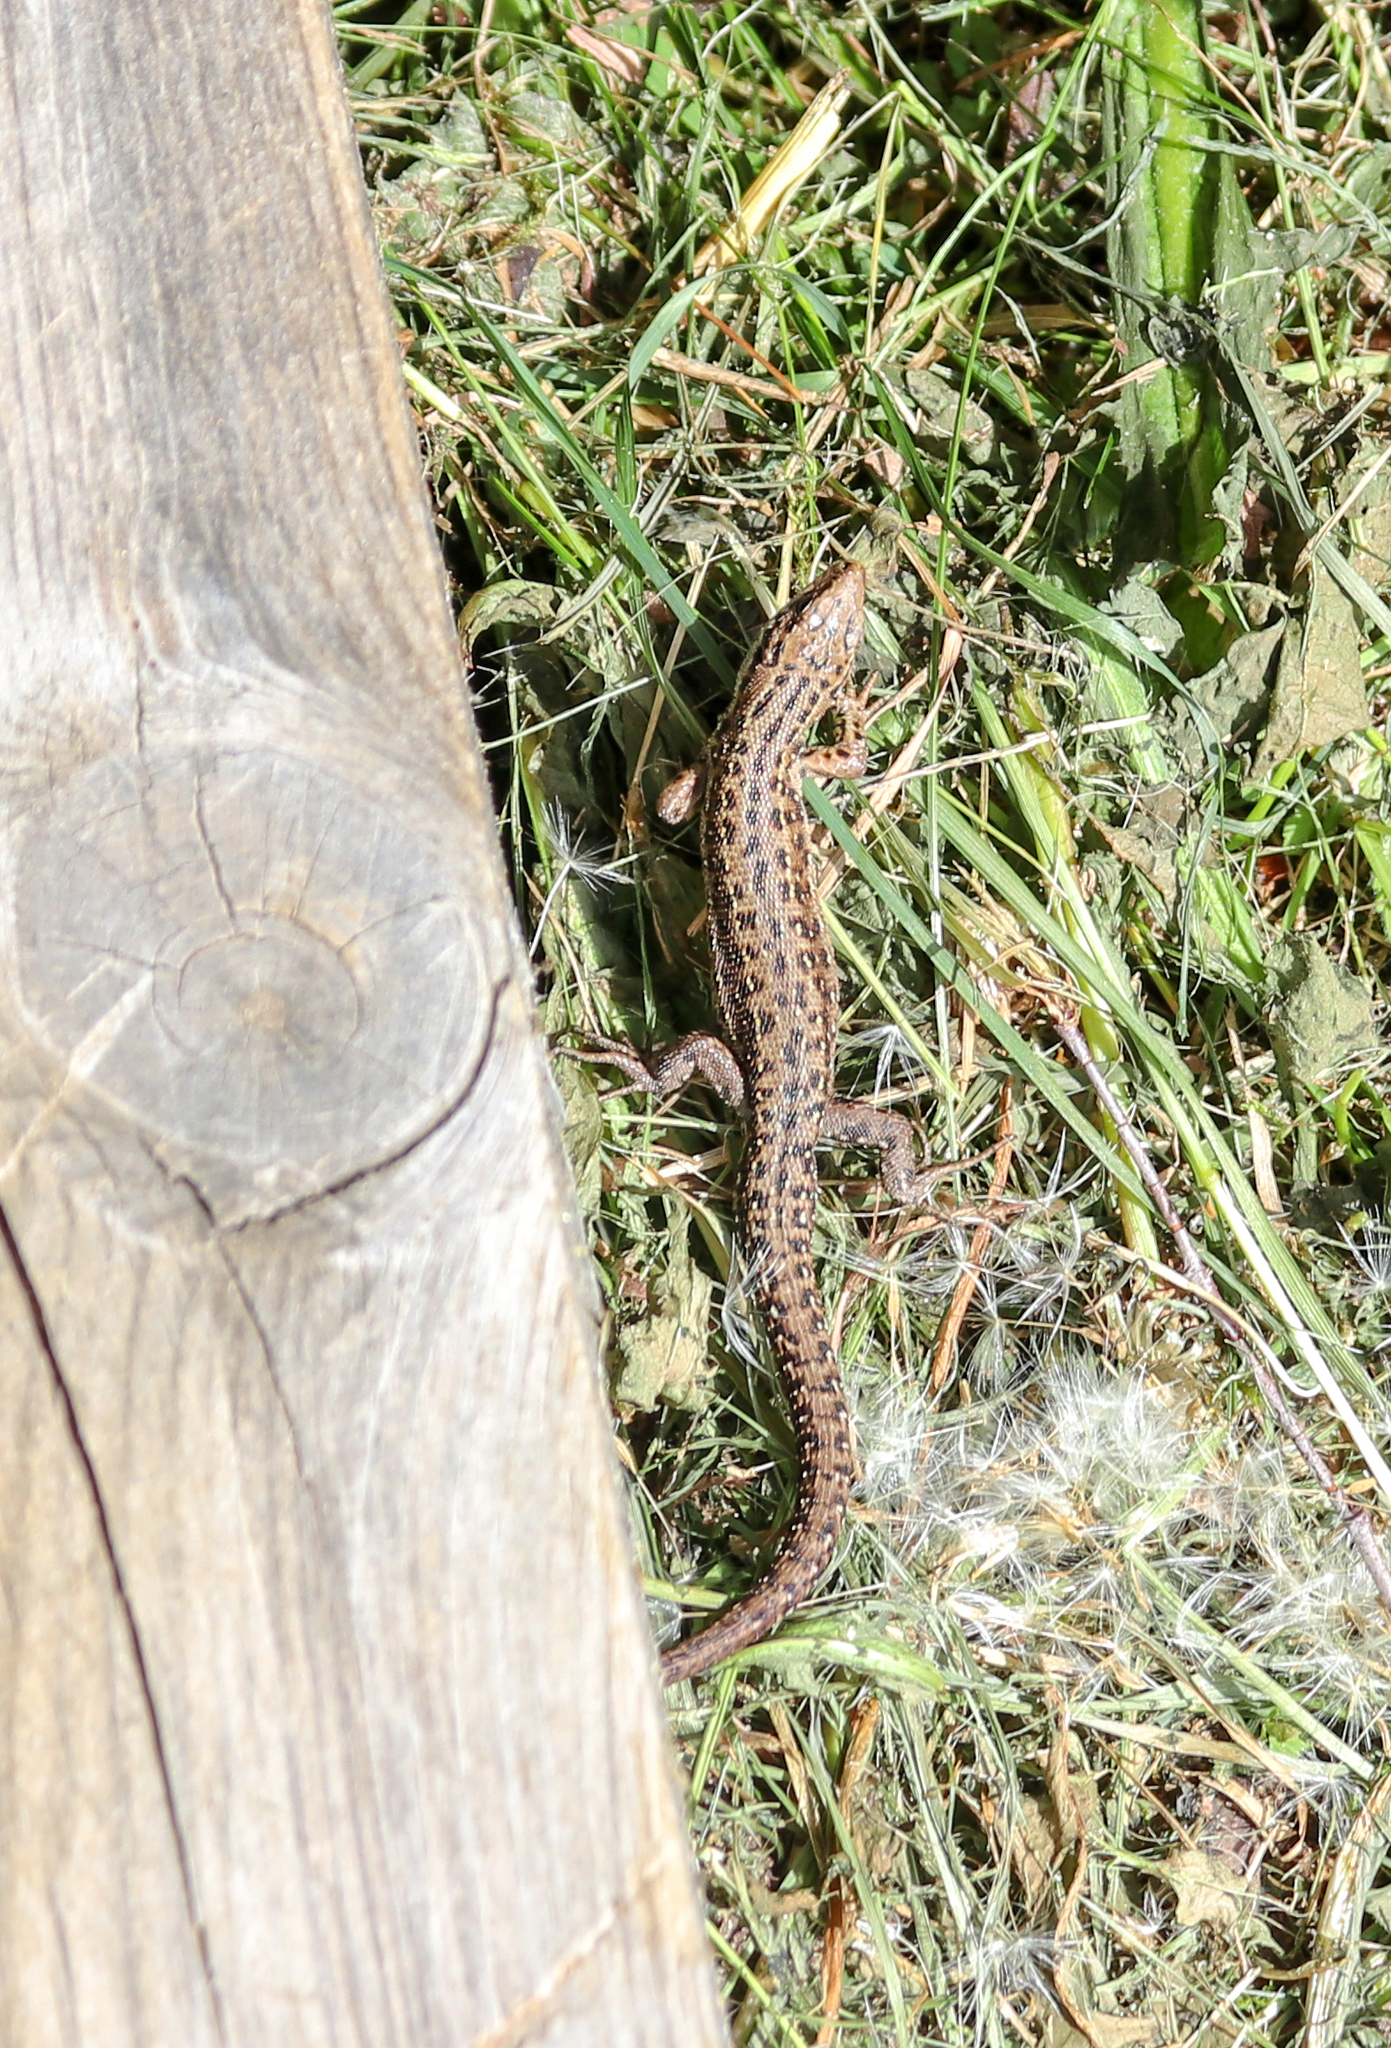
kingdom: Animalia
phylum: Chordata
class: Squamata
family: Lacertidae
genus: Zootoca
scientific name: Zootoca vivipara
